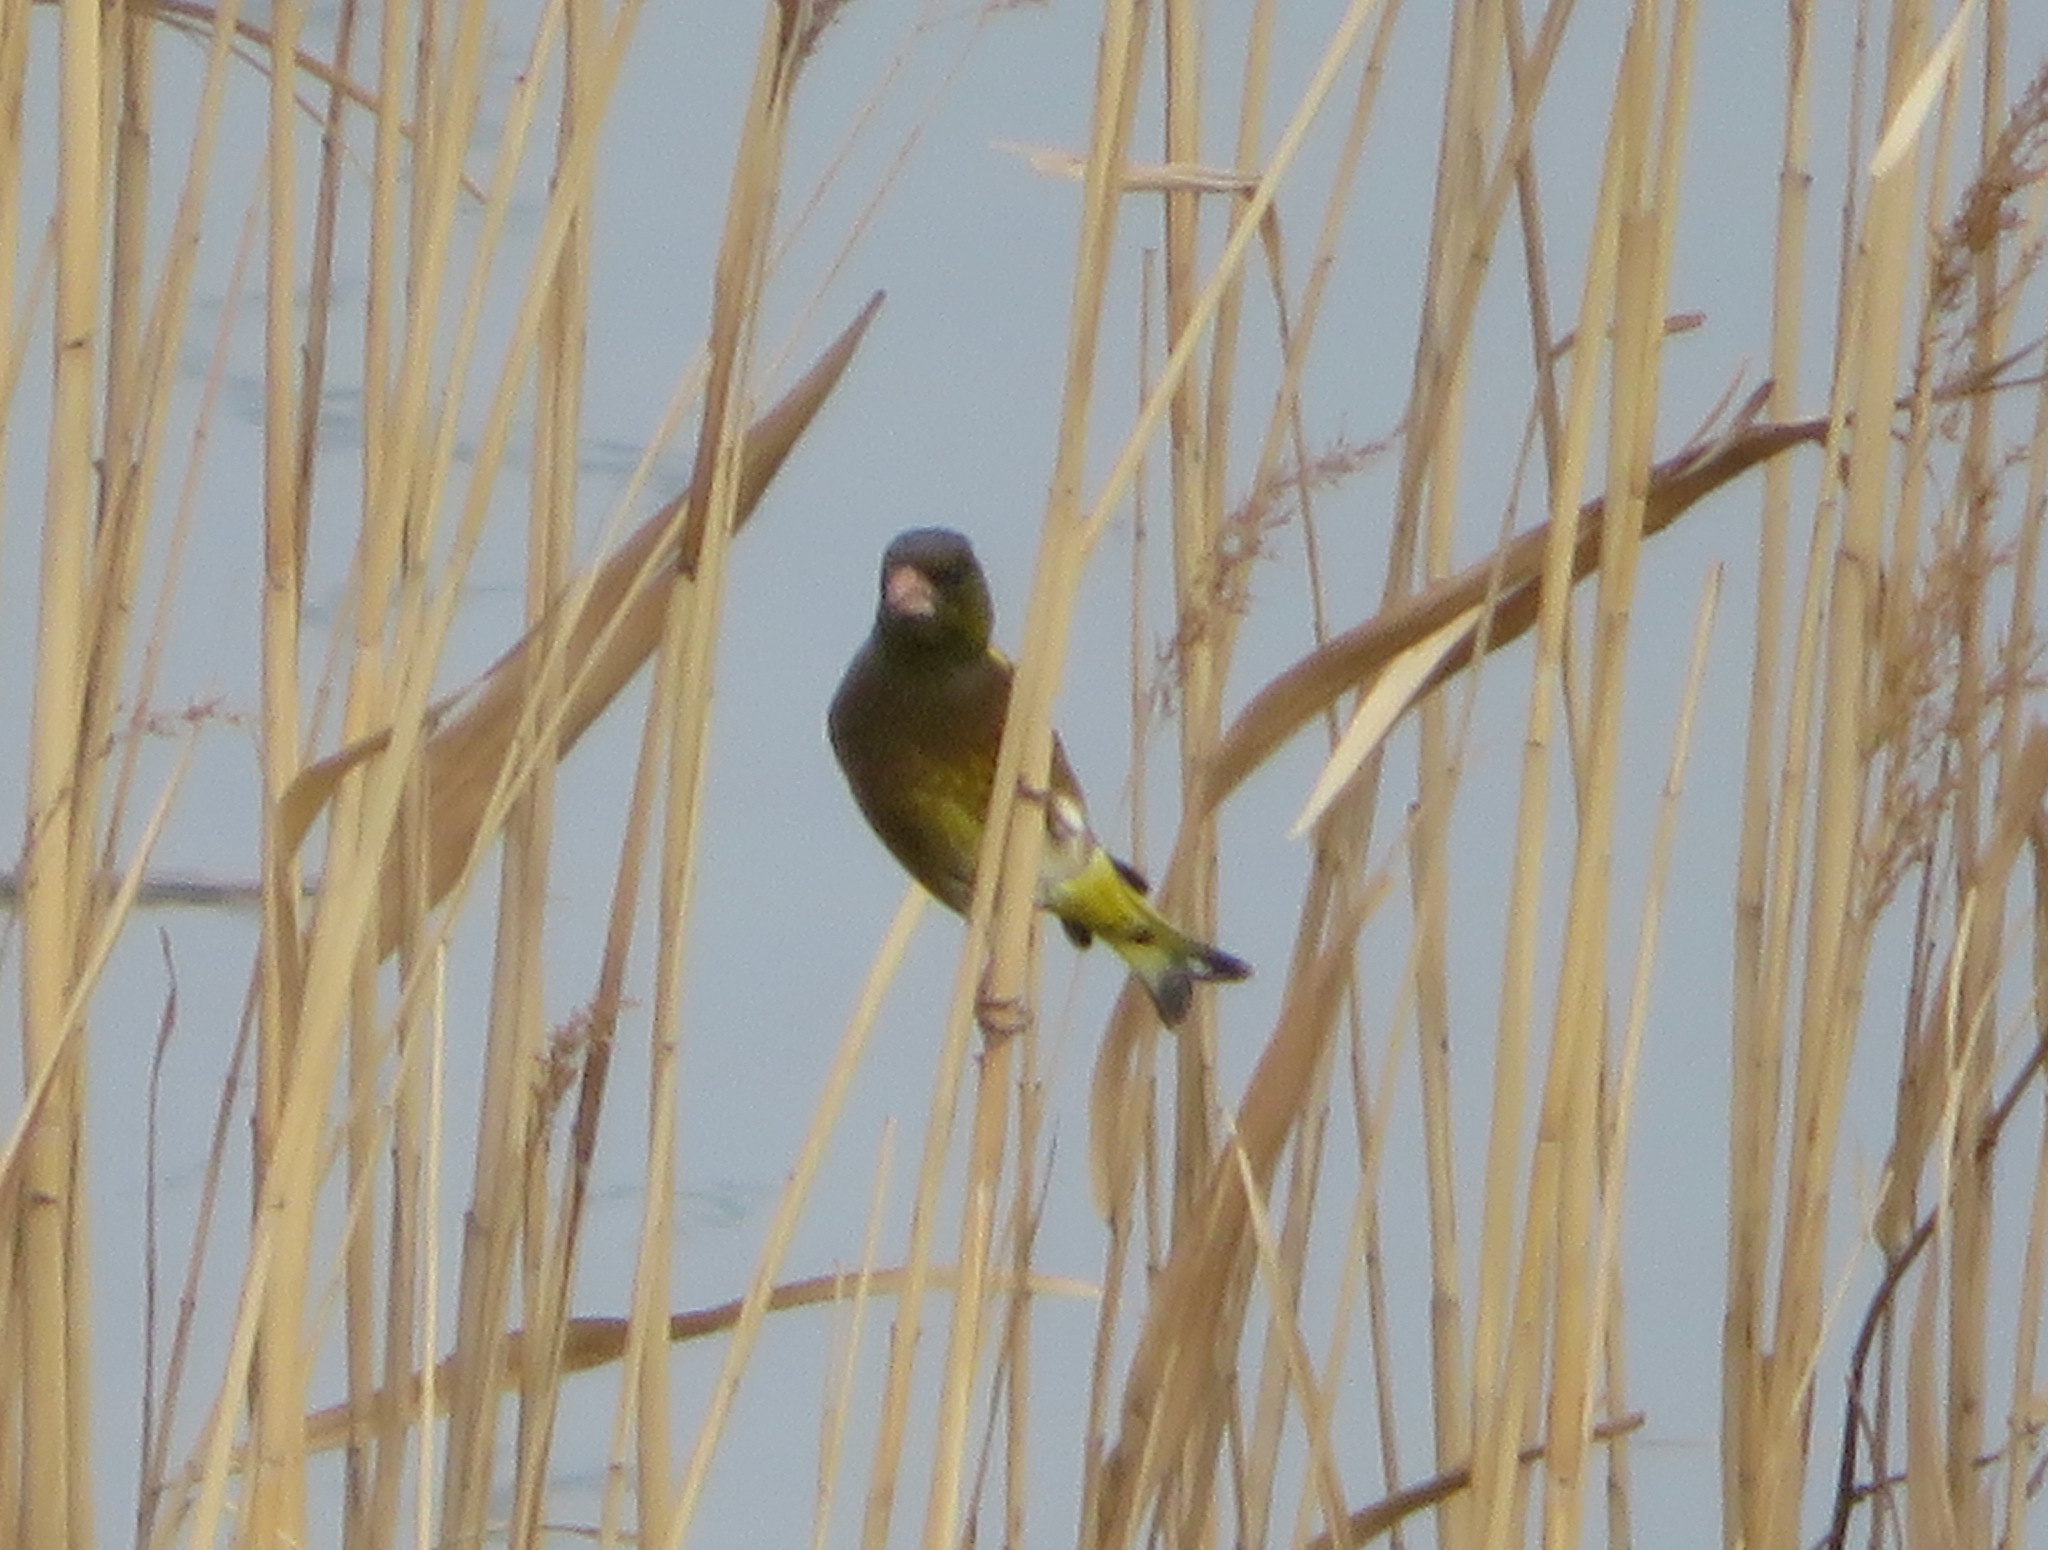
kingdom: Plantae
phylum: Tracheophyta
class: Liliopsida
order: Poales
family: Poaceae
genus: Chloris
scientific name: Chloris sinica
